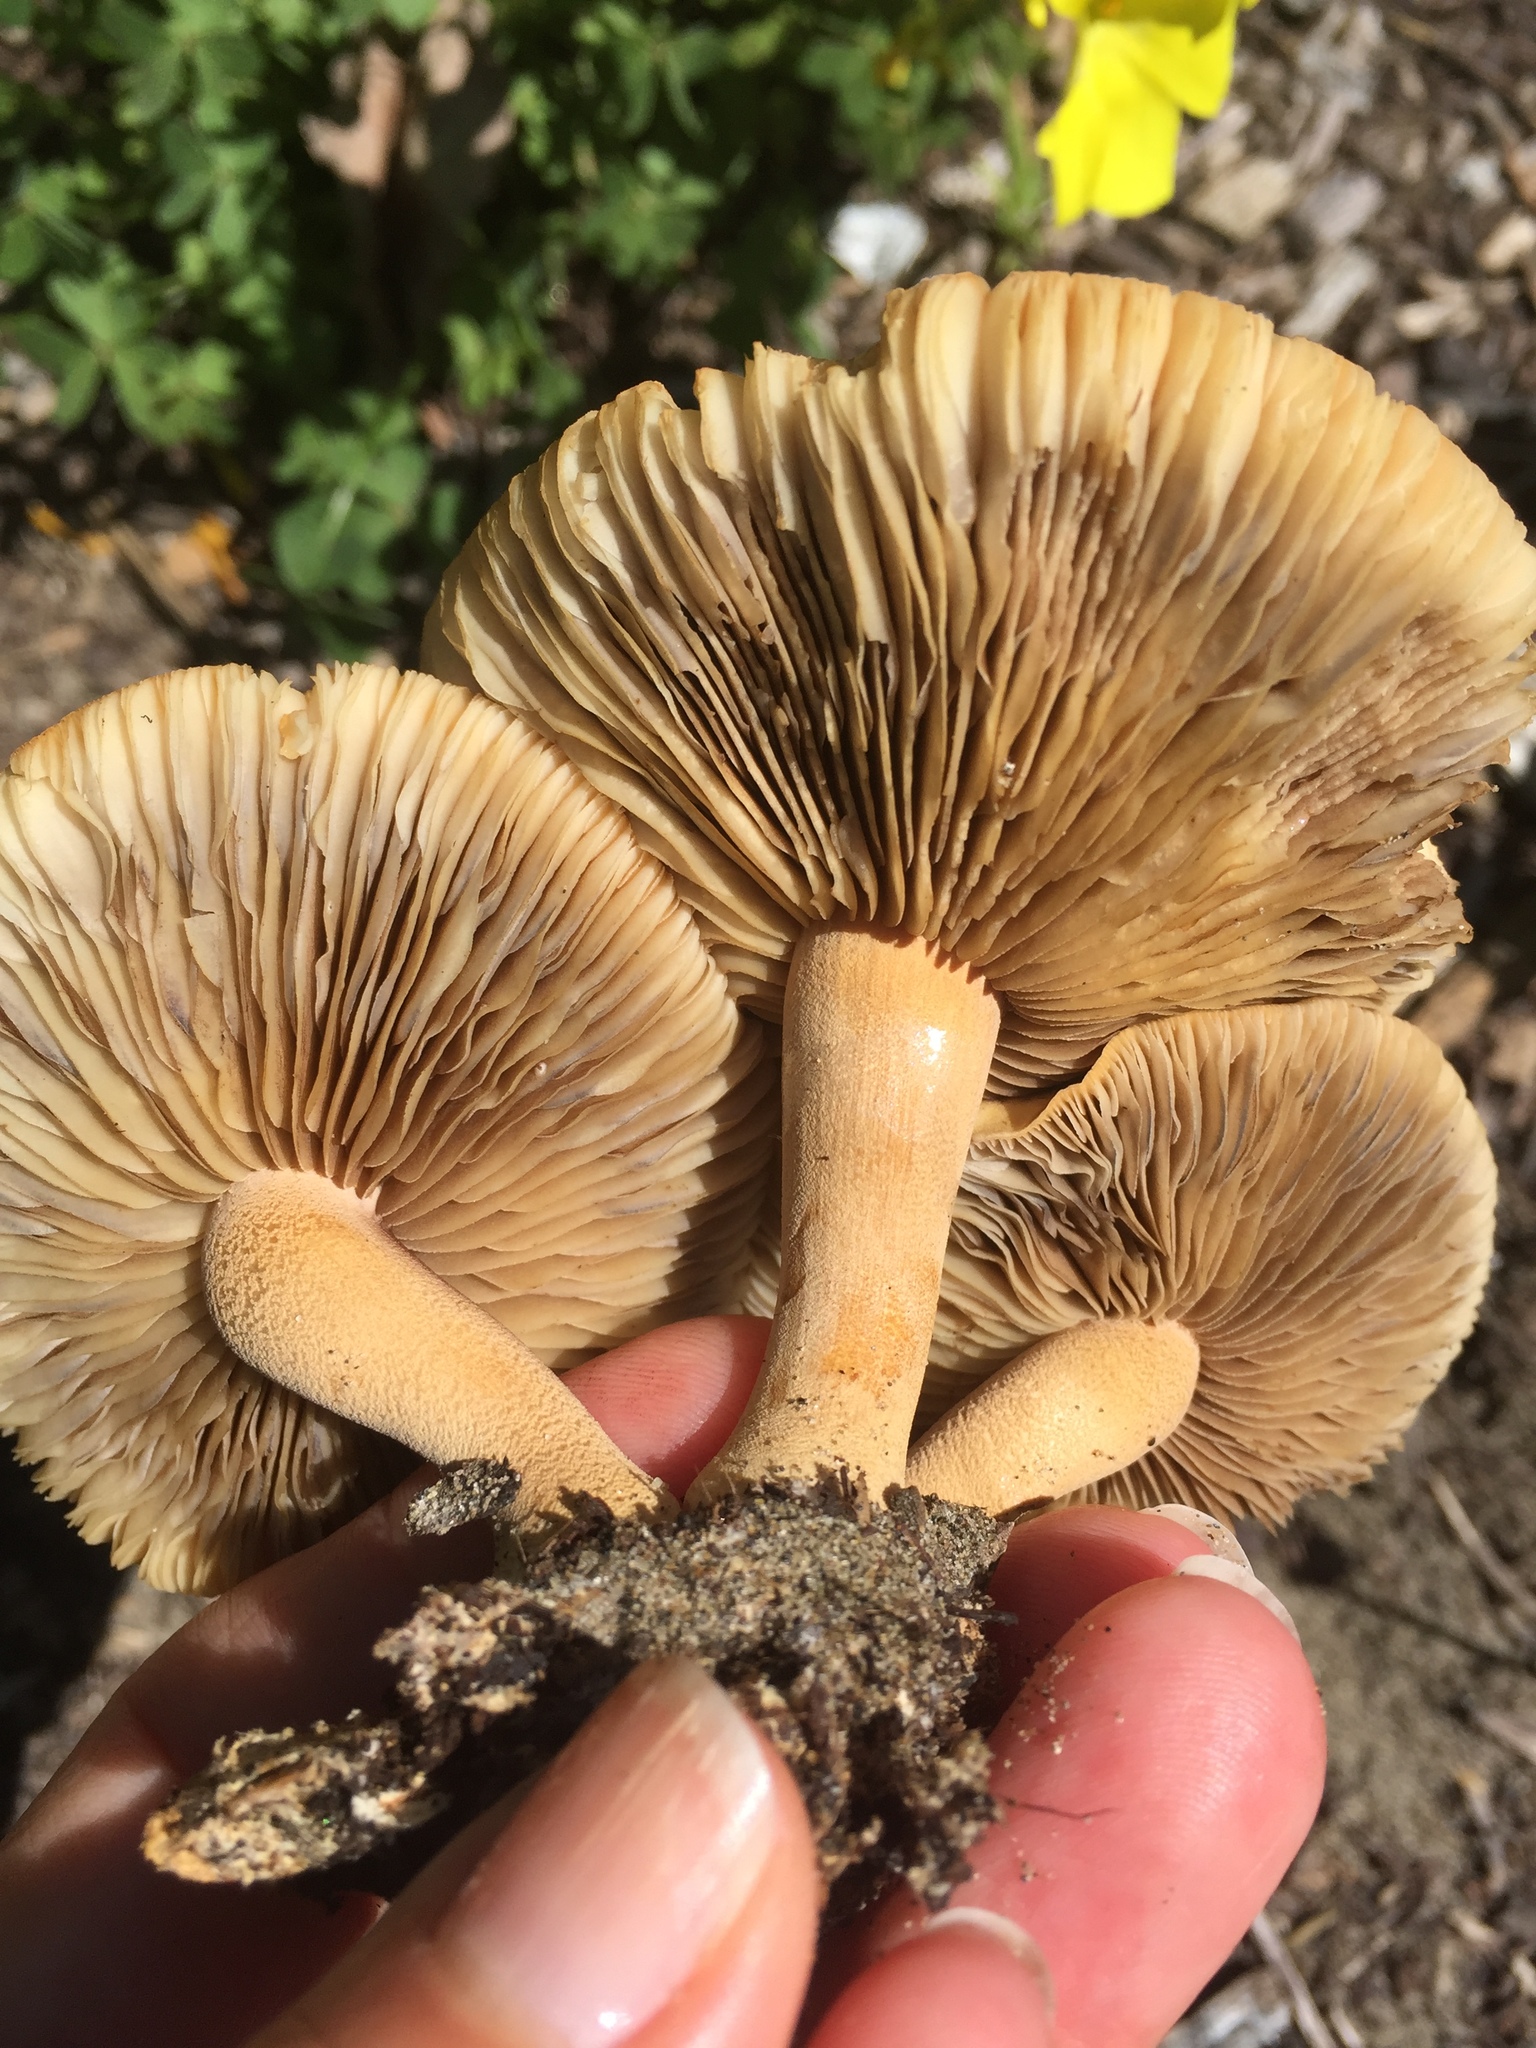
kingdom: Fungi
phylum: Basidiomycota
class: Agaricomycetes
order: Agaricales
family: Strophariaceae
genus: Agrocybe
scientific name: Agrocybe putaminum
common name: Mulch fieldcap
